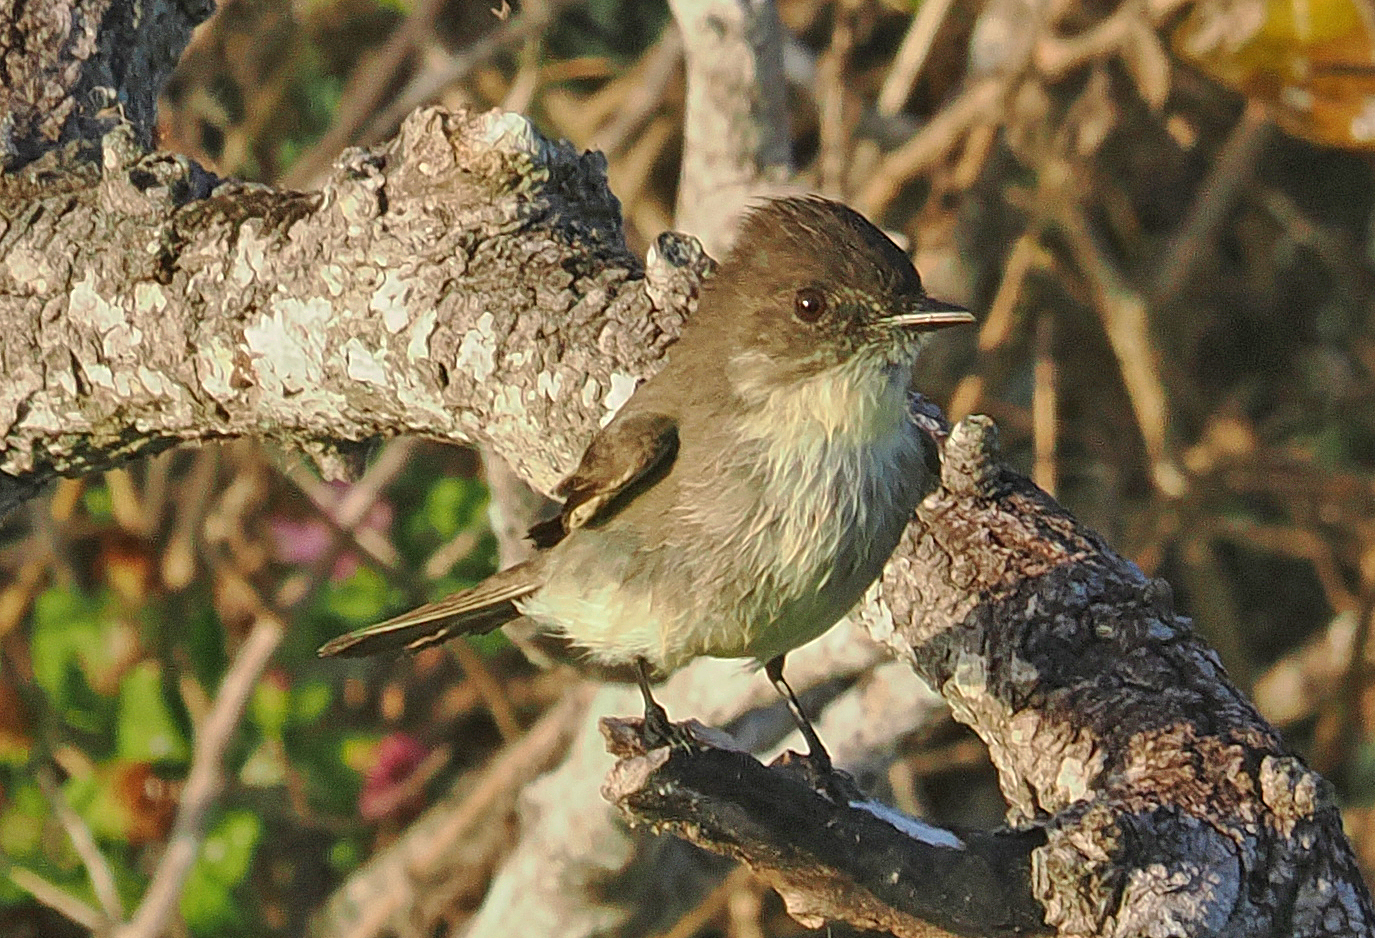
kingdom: Animalia
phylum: Chordata
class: Aves
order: Passeriformes
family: Tyrannidae
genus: Sayornis
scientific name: Sayornis phoebe
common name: Eastern phoebe
